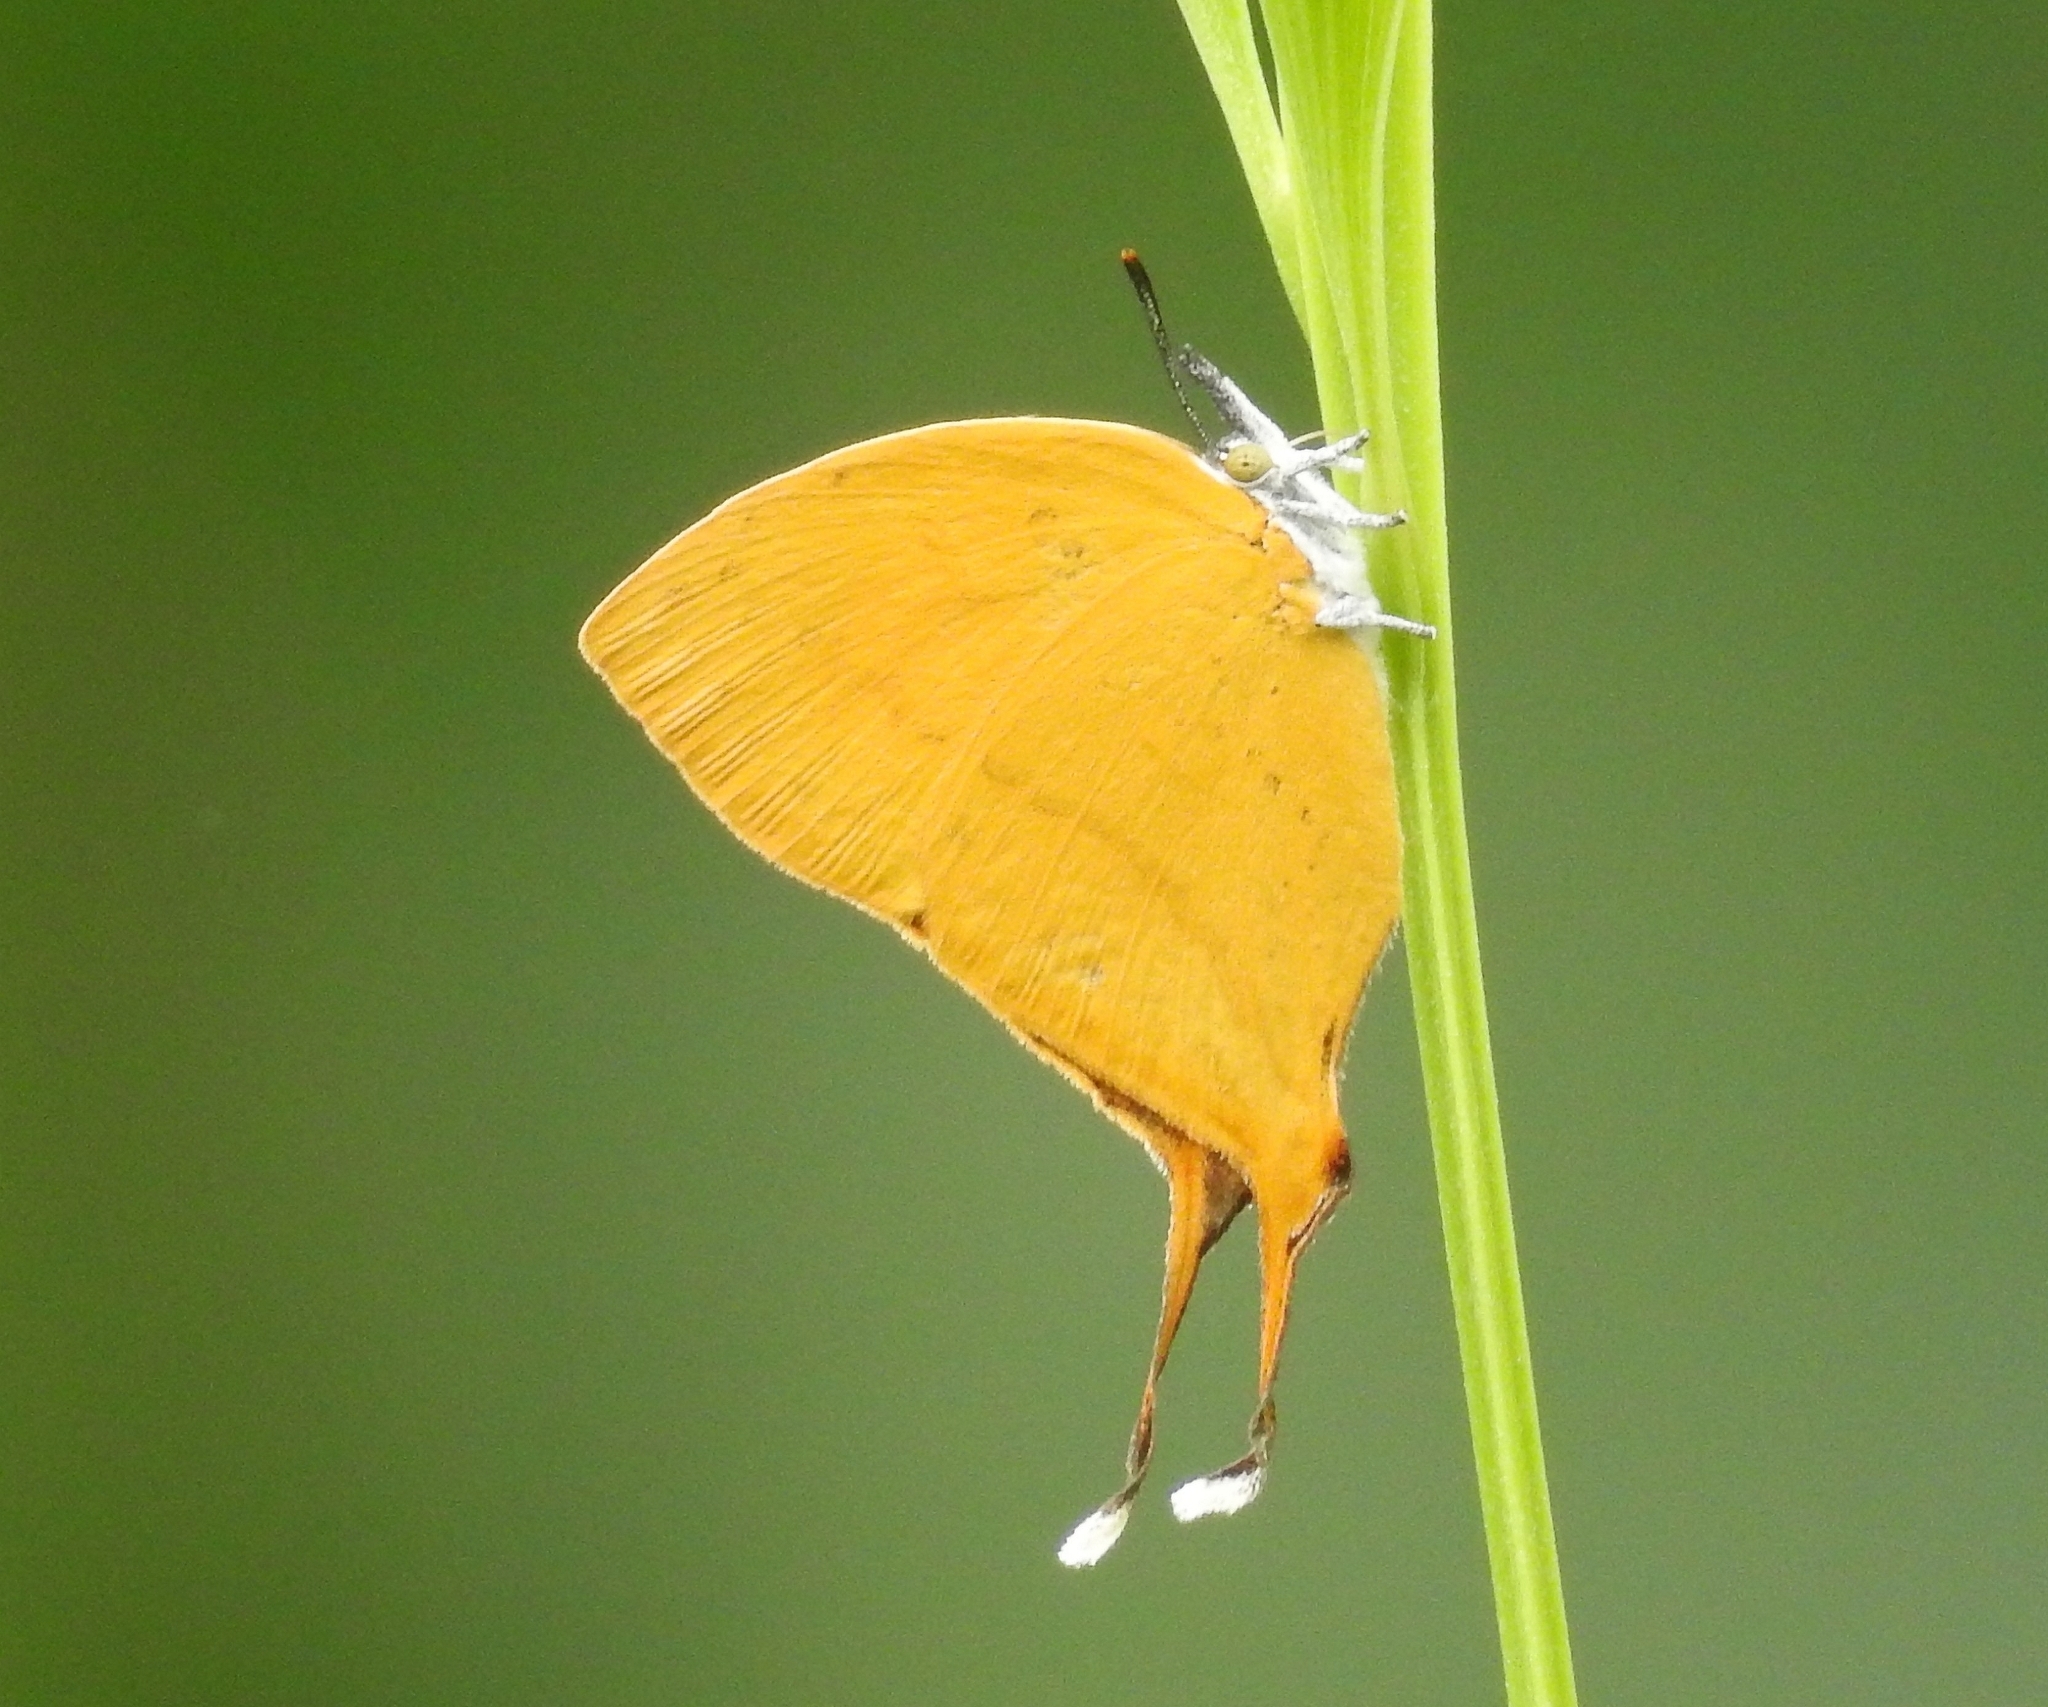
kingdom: Animalia
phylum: Arthropoda
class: Insecta
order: Lepidoptera
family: Lycaenidae
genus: Loxura
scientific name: Loxura atymnus
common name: Common yamfly
